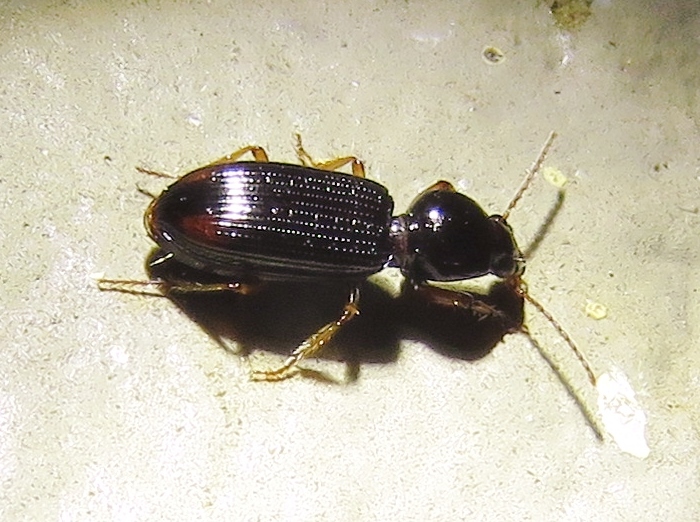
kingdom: Animalia
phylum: Arthropoda
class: Insecta
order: Coleoptera
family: Carabidae
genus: Aspidoglossa
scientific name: Aspidoglossa subangulata
